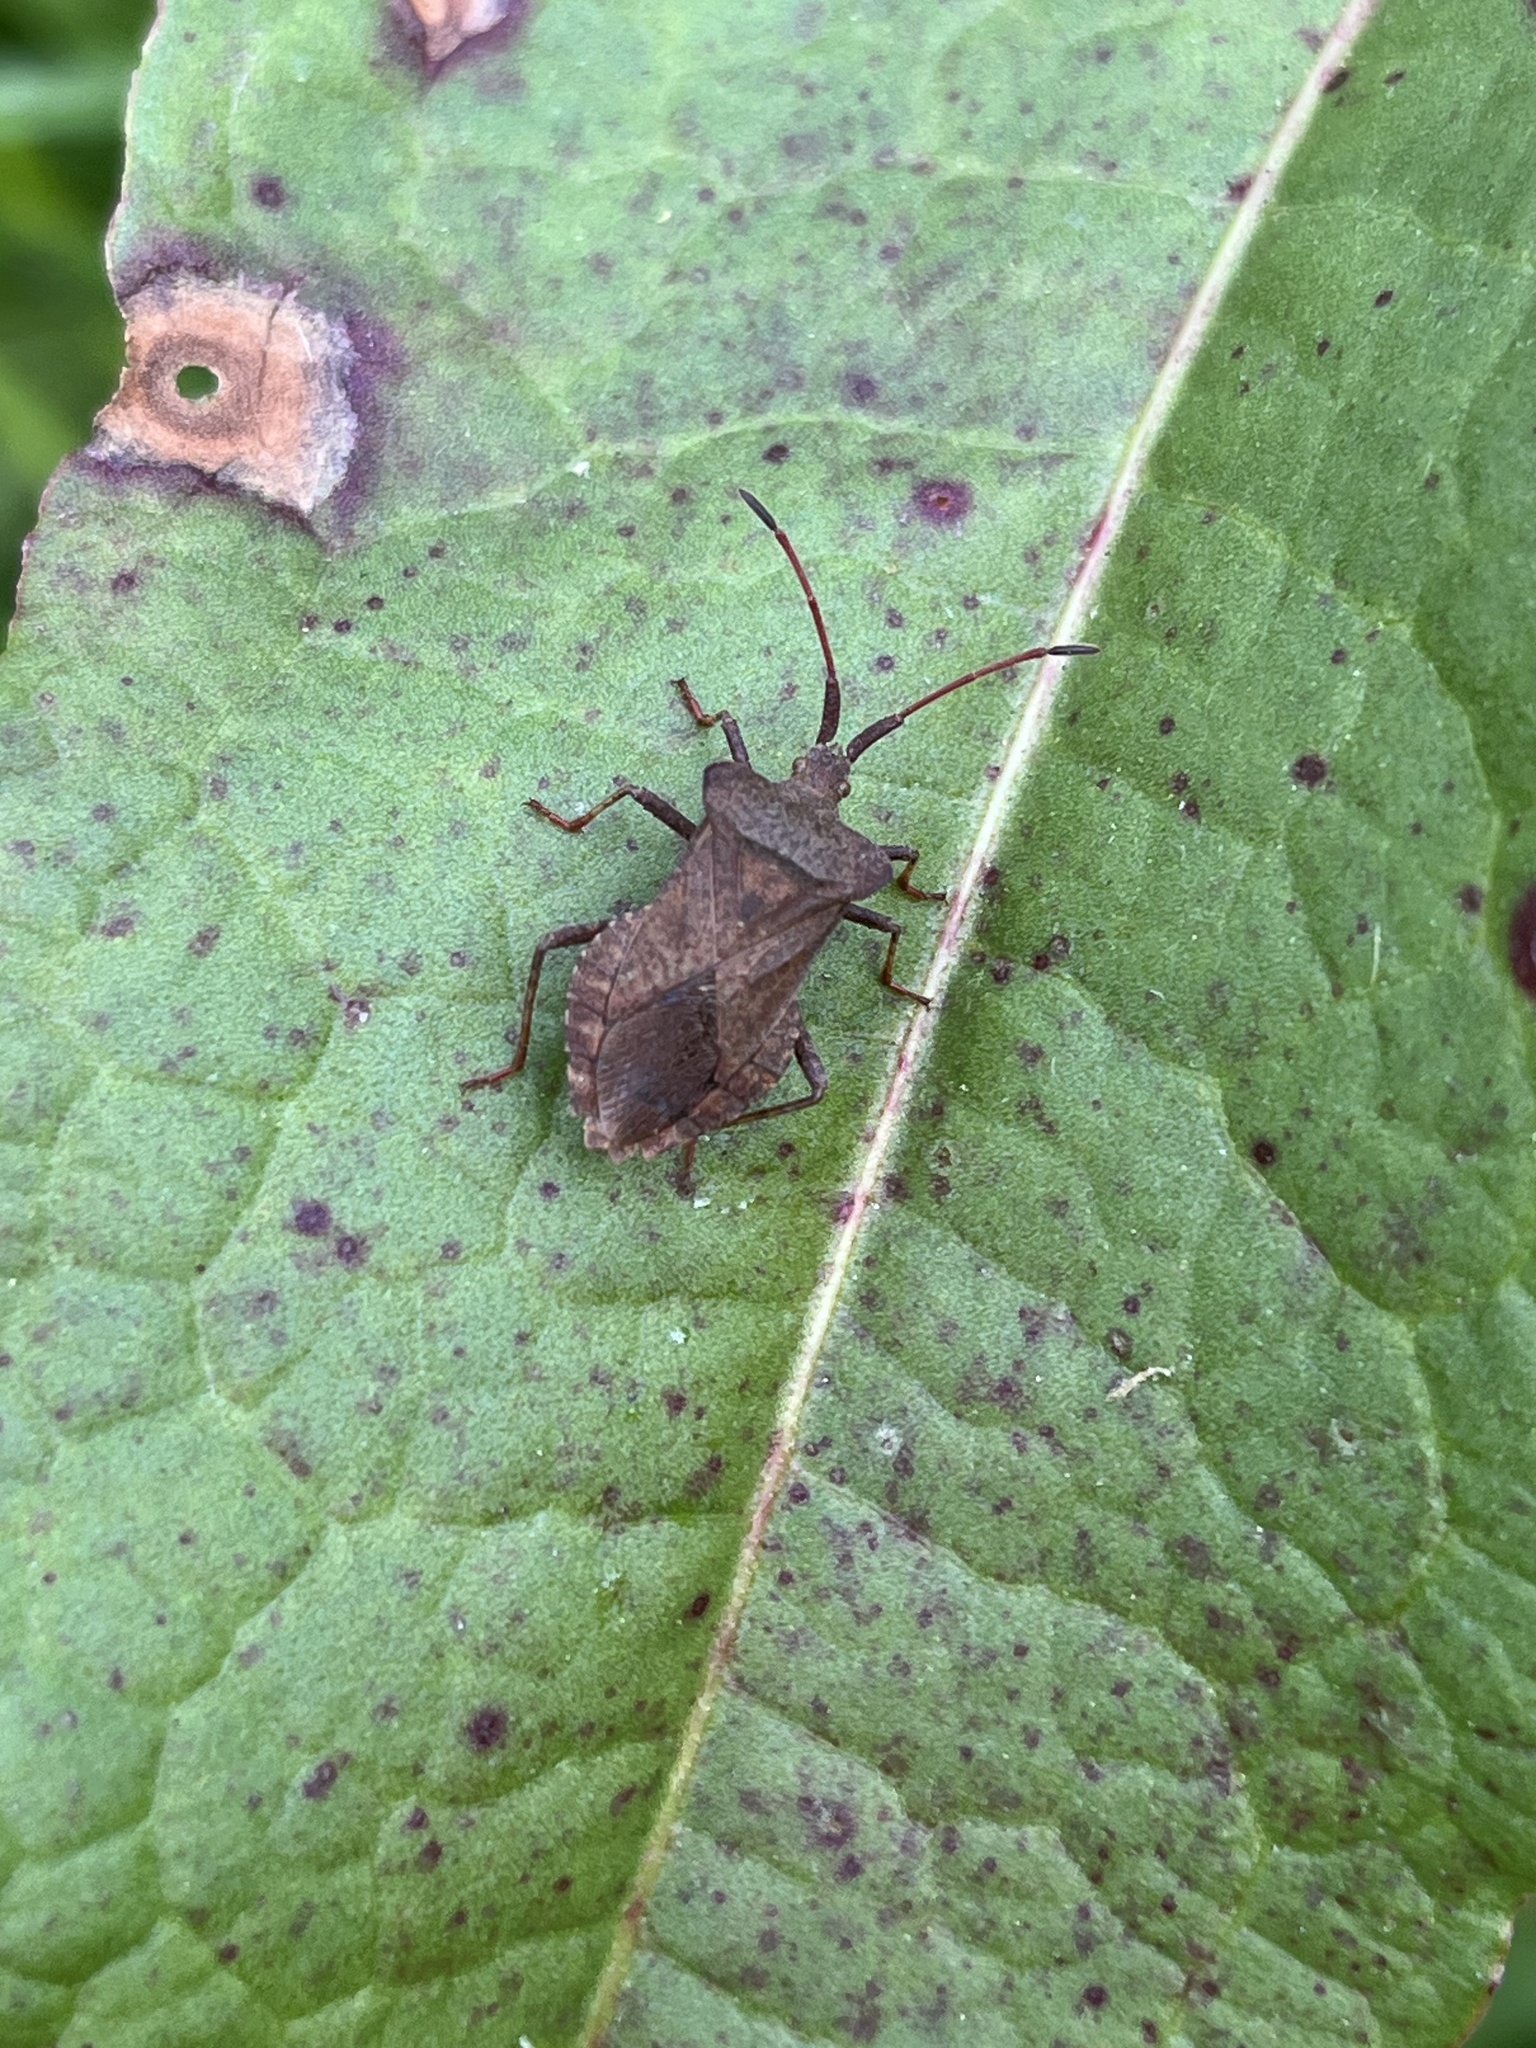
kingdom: Animalia
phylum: Arthropoda
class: Insecta
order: Hemiptera
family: Coreidae
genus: Coreus
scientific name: Coreus marginatus
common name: Dock bug
